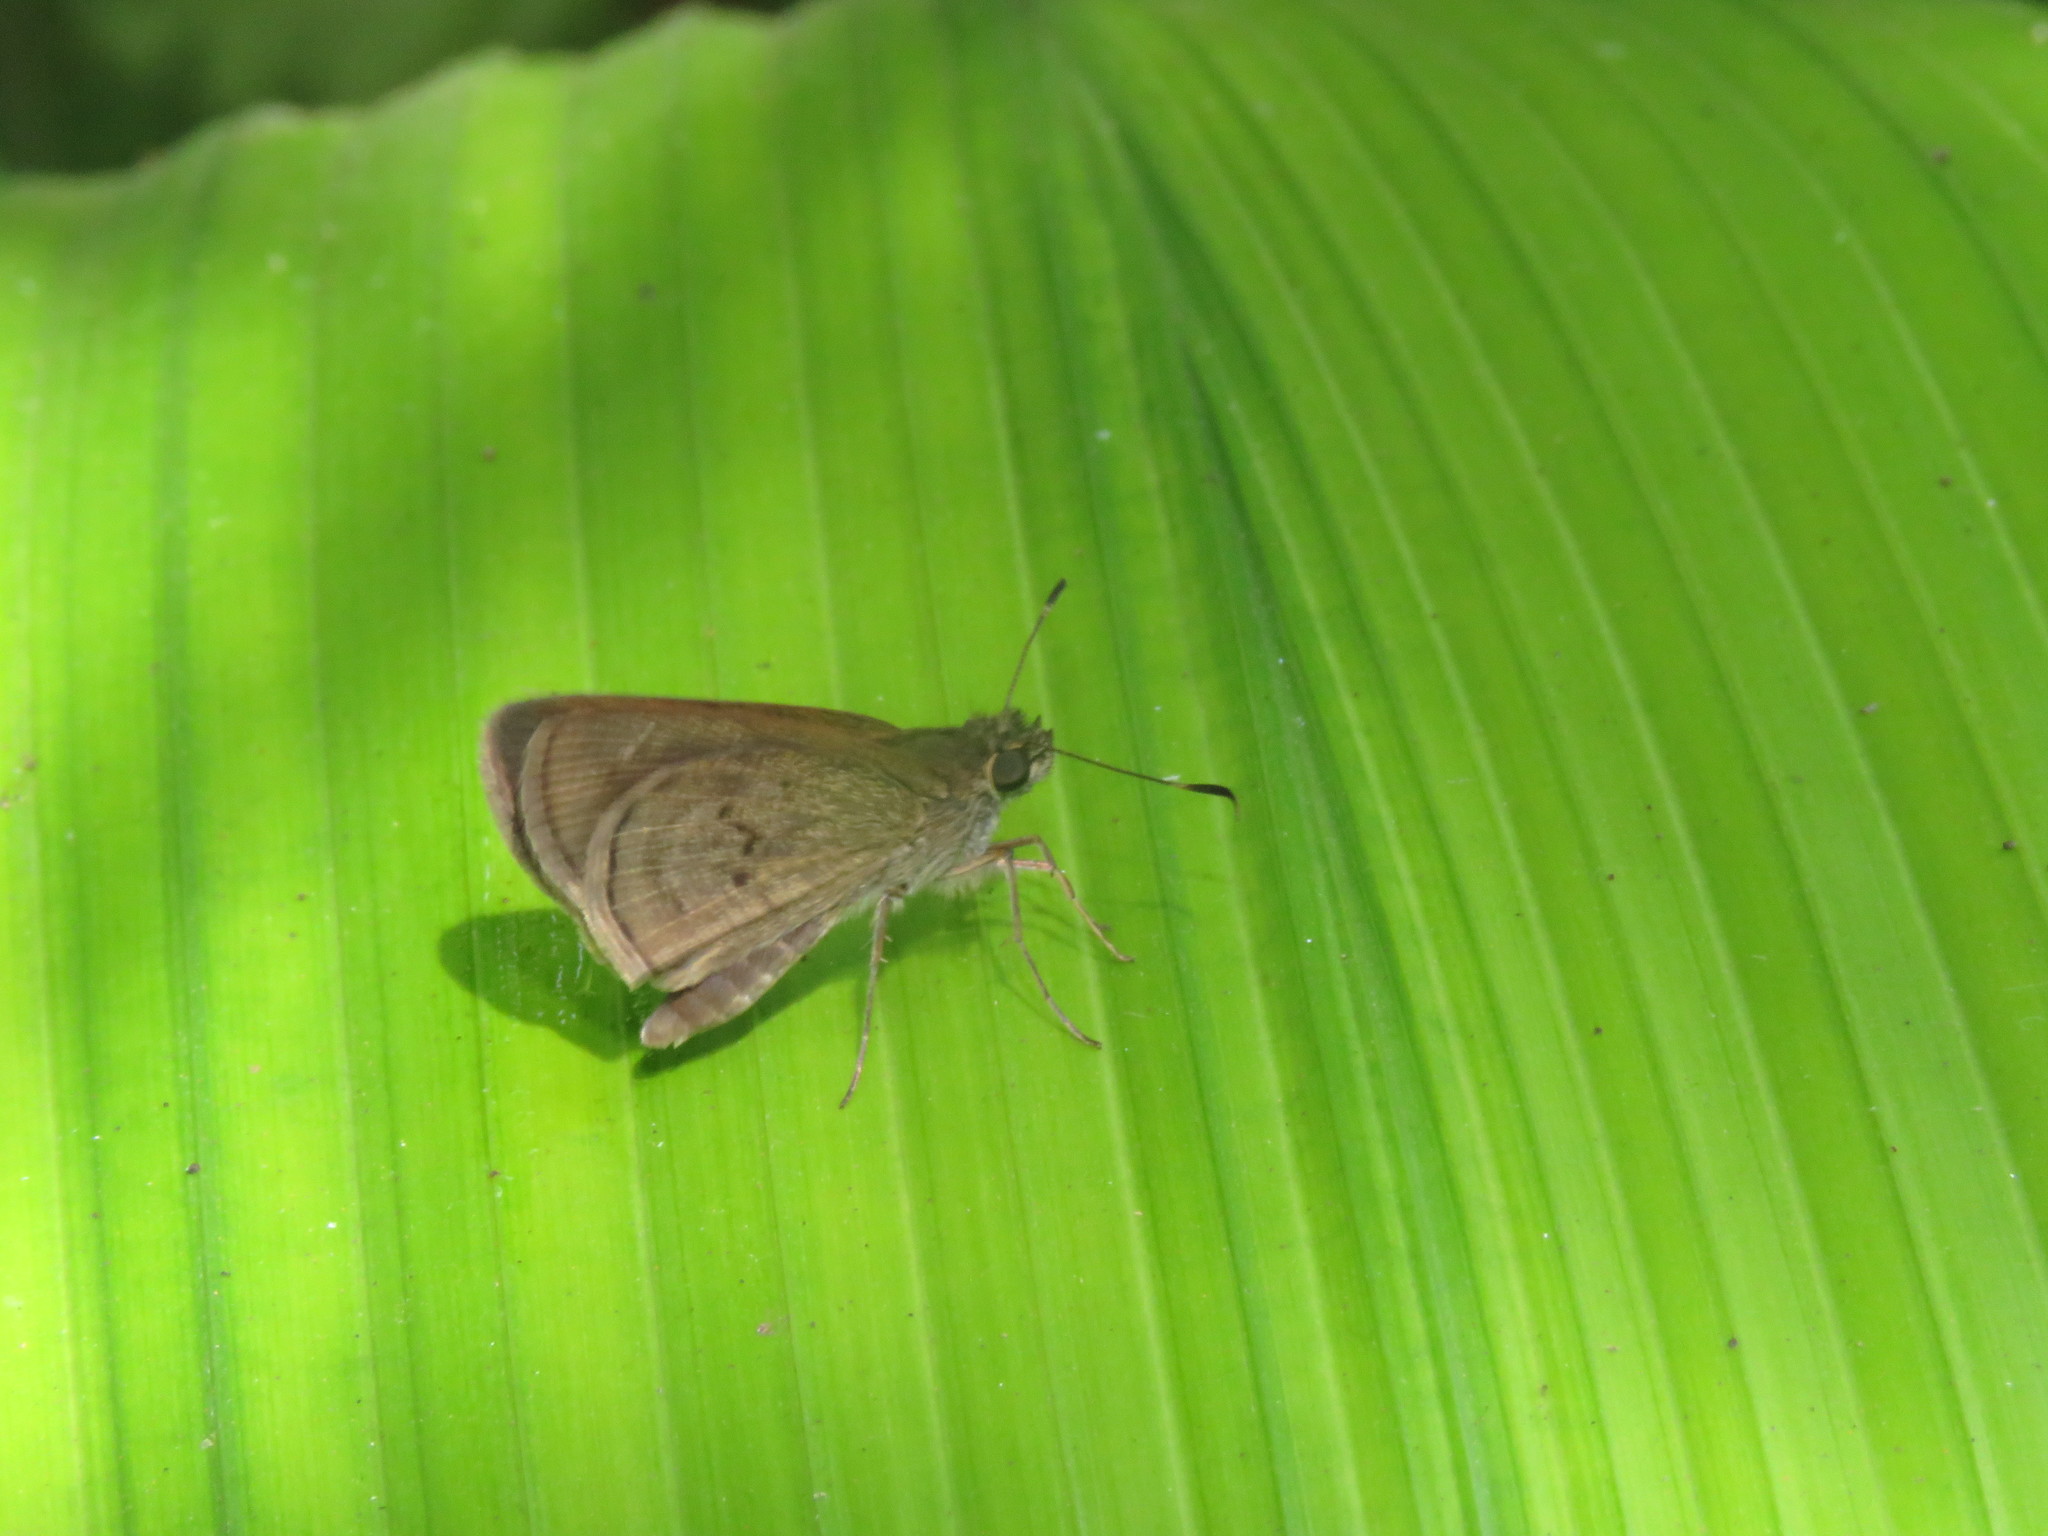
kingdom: Animalia
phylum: Arthropoda
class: Insecta
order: Lepidoptera
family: Hesperiidae
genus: Cymaenes
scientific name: Cymaenes tripunctata
